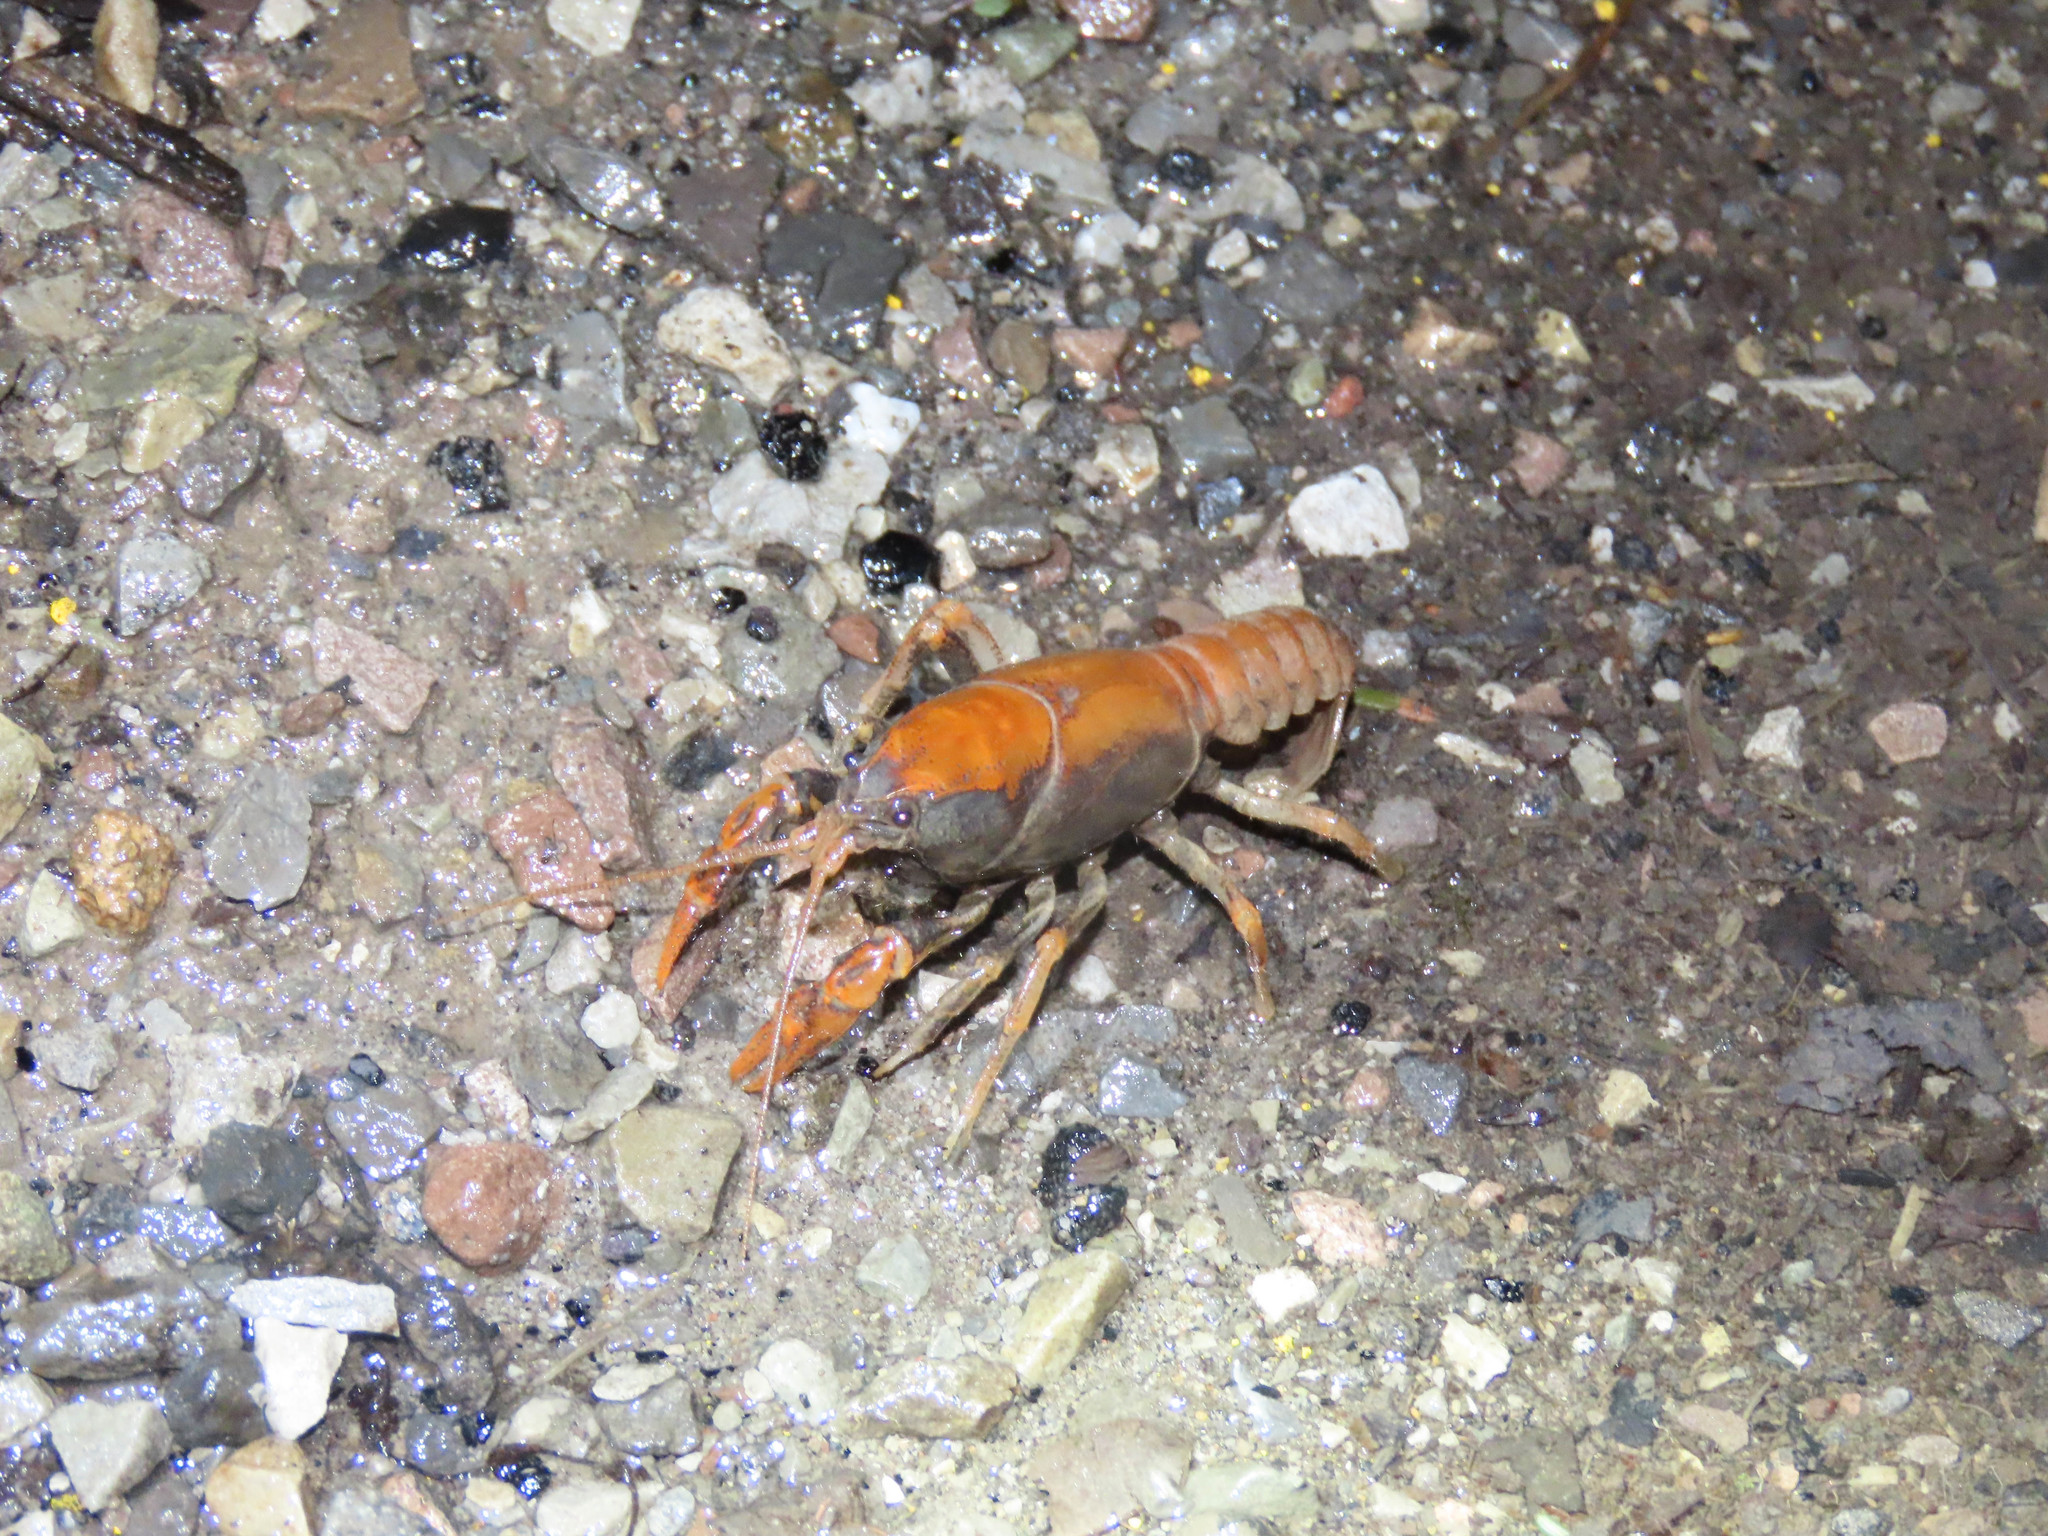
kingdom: Animalia
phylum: Arthropoda
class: Malacostraca
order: Decapoda
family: Cambaridae
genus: Cambarus
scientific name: Cambarus dubius
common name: Upland burrowing crayfish
